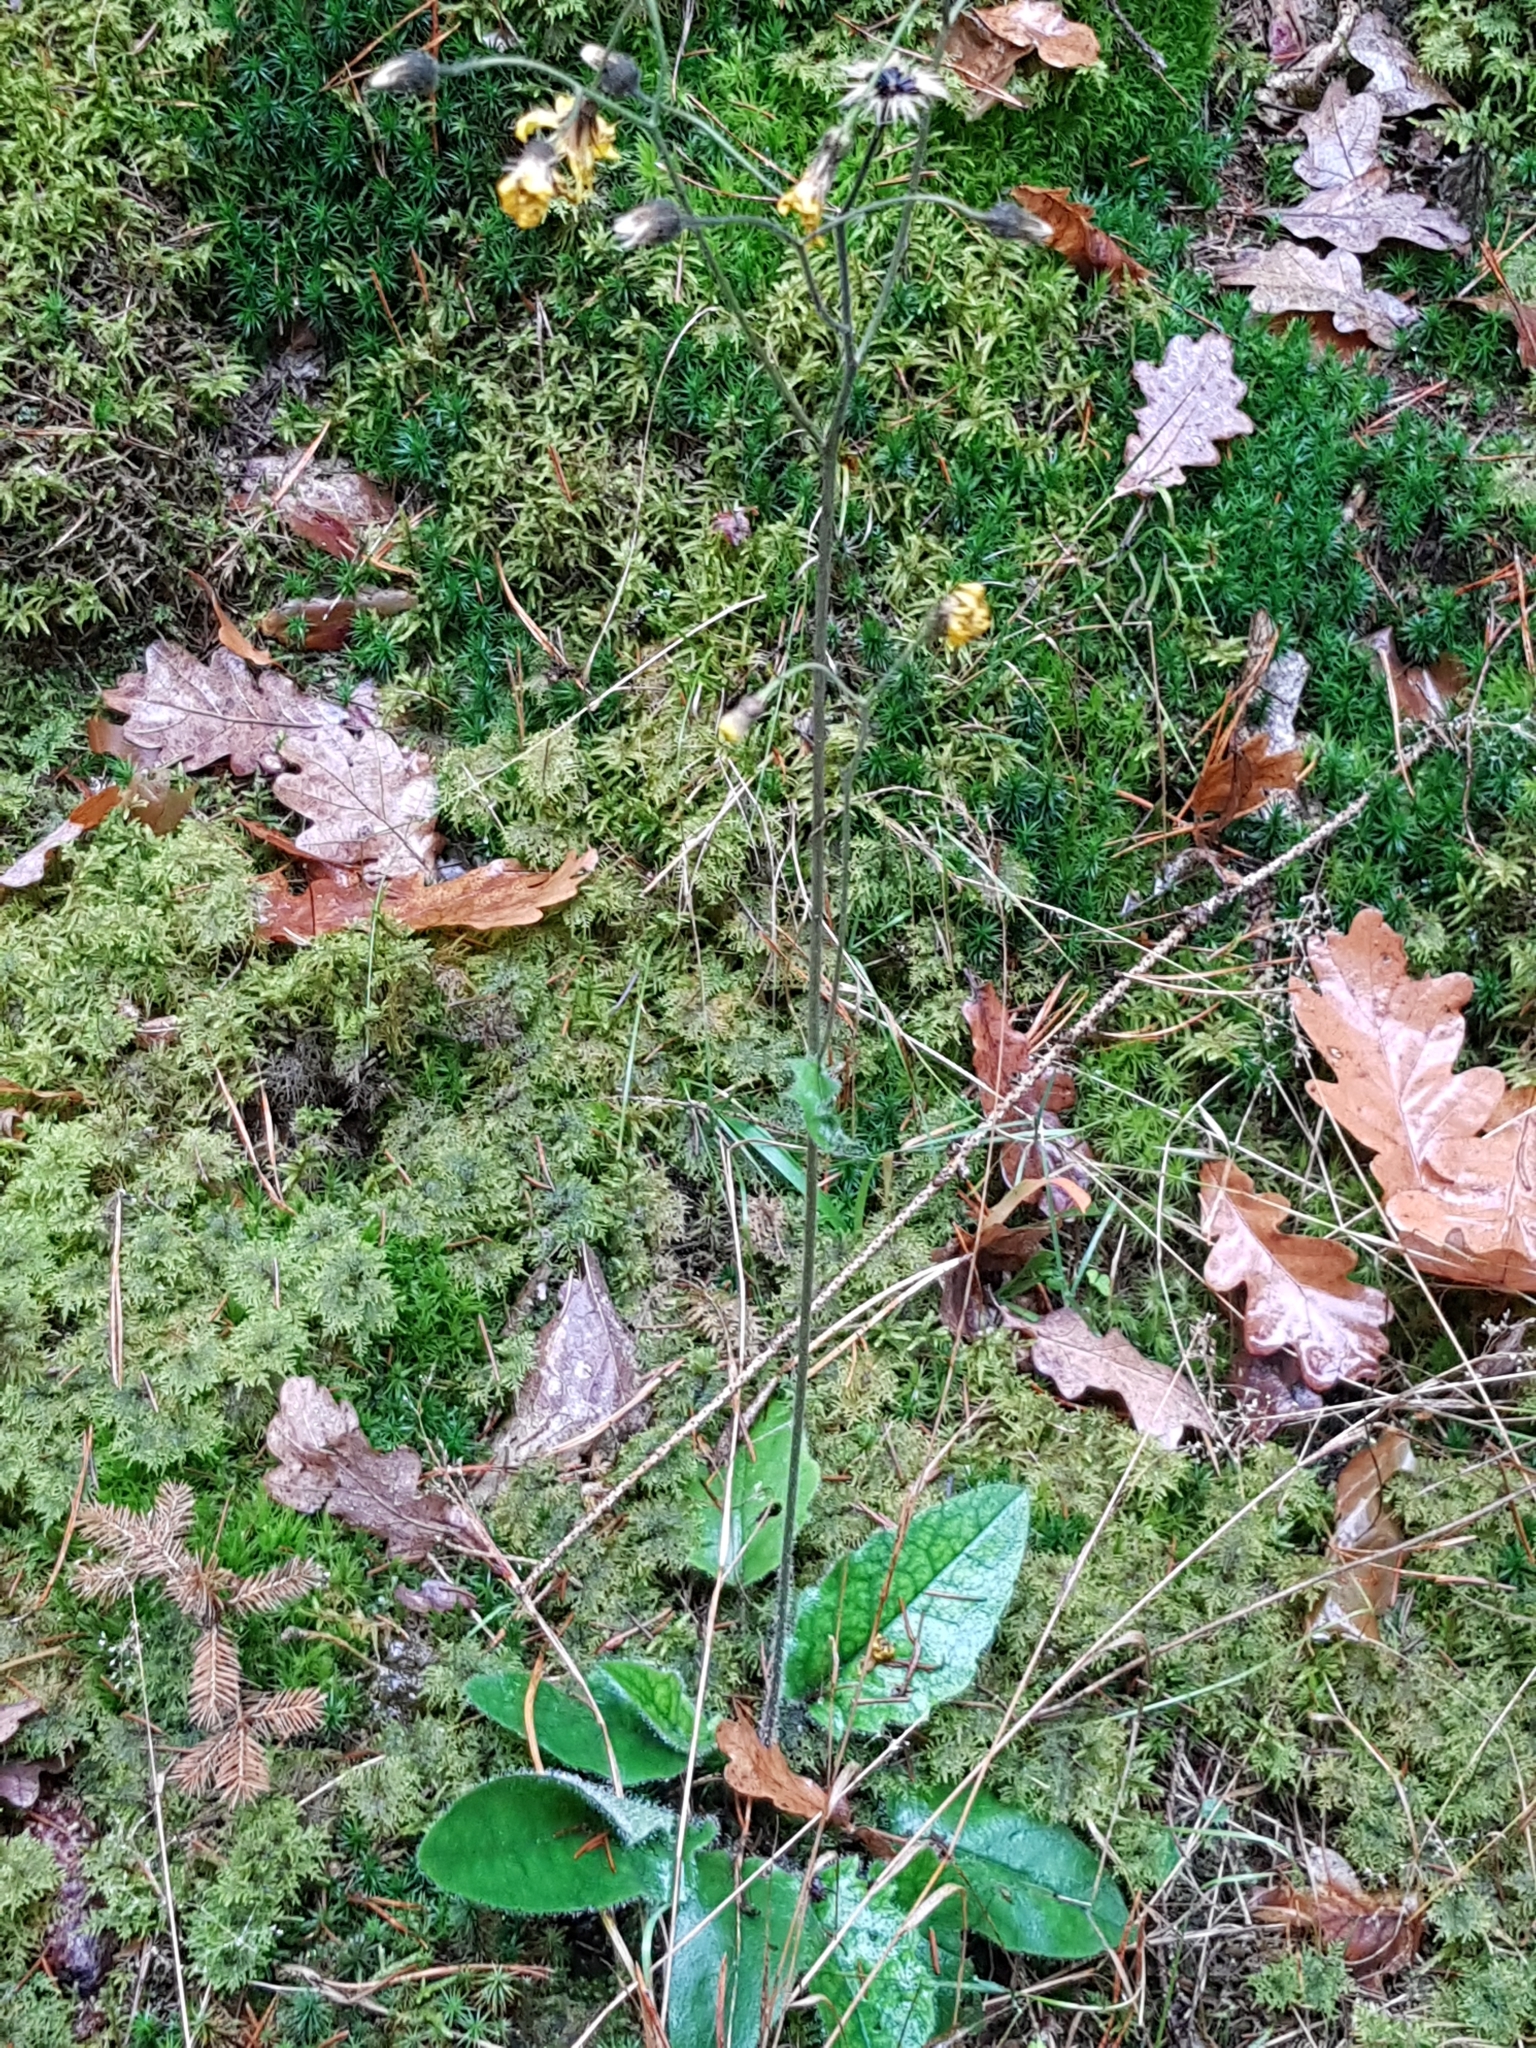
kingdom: Plantae
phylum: Tracheophyta
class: Magnoliopsida
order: Asterales
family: Asteraceae
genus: Hieracium
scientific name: Hieracium murorum
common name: Wall hawkweed
